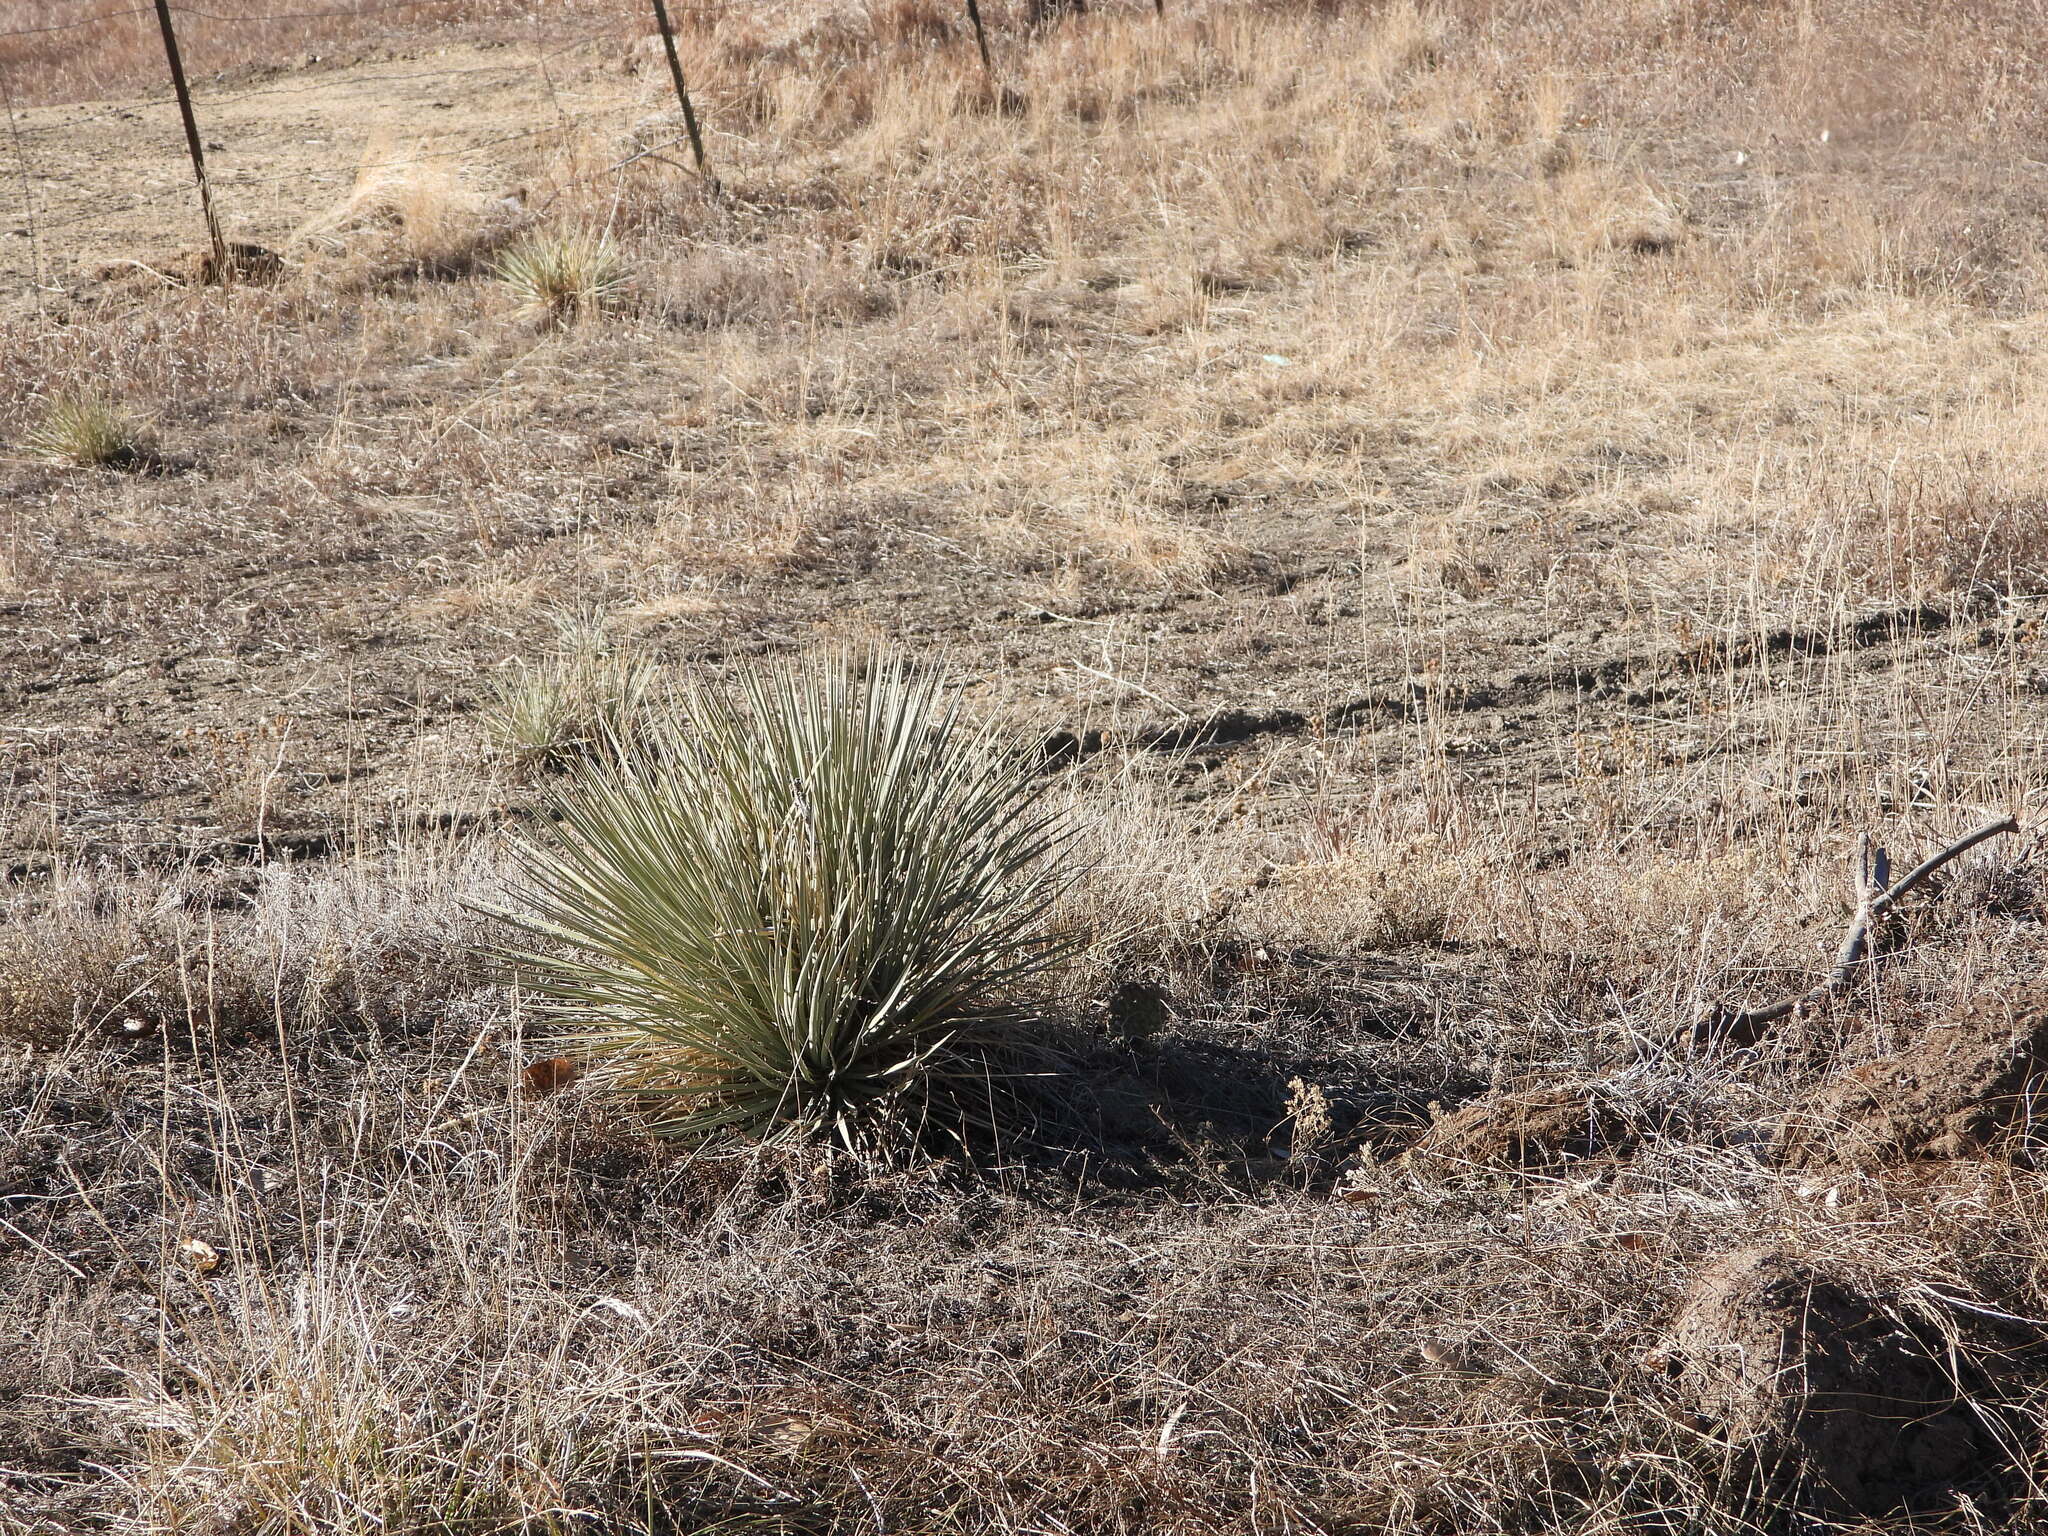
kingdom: Plantae
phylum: Tracheophyta
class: Liliopsida
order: Asparagales
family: Asparagaceae
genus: Yucca
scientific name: Yucca glauca
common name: Great plains yucca
